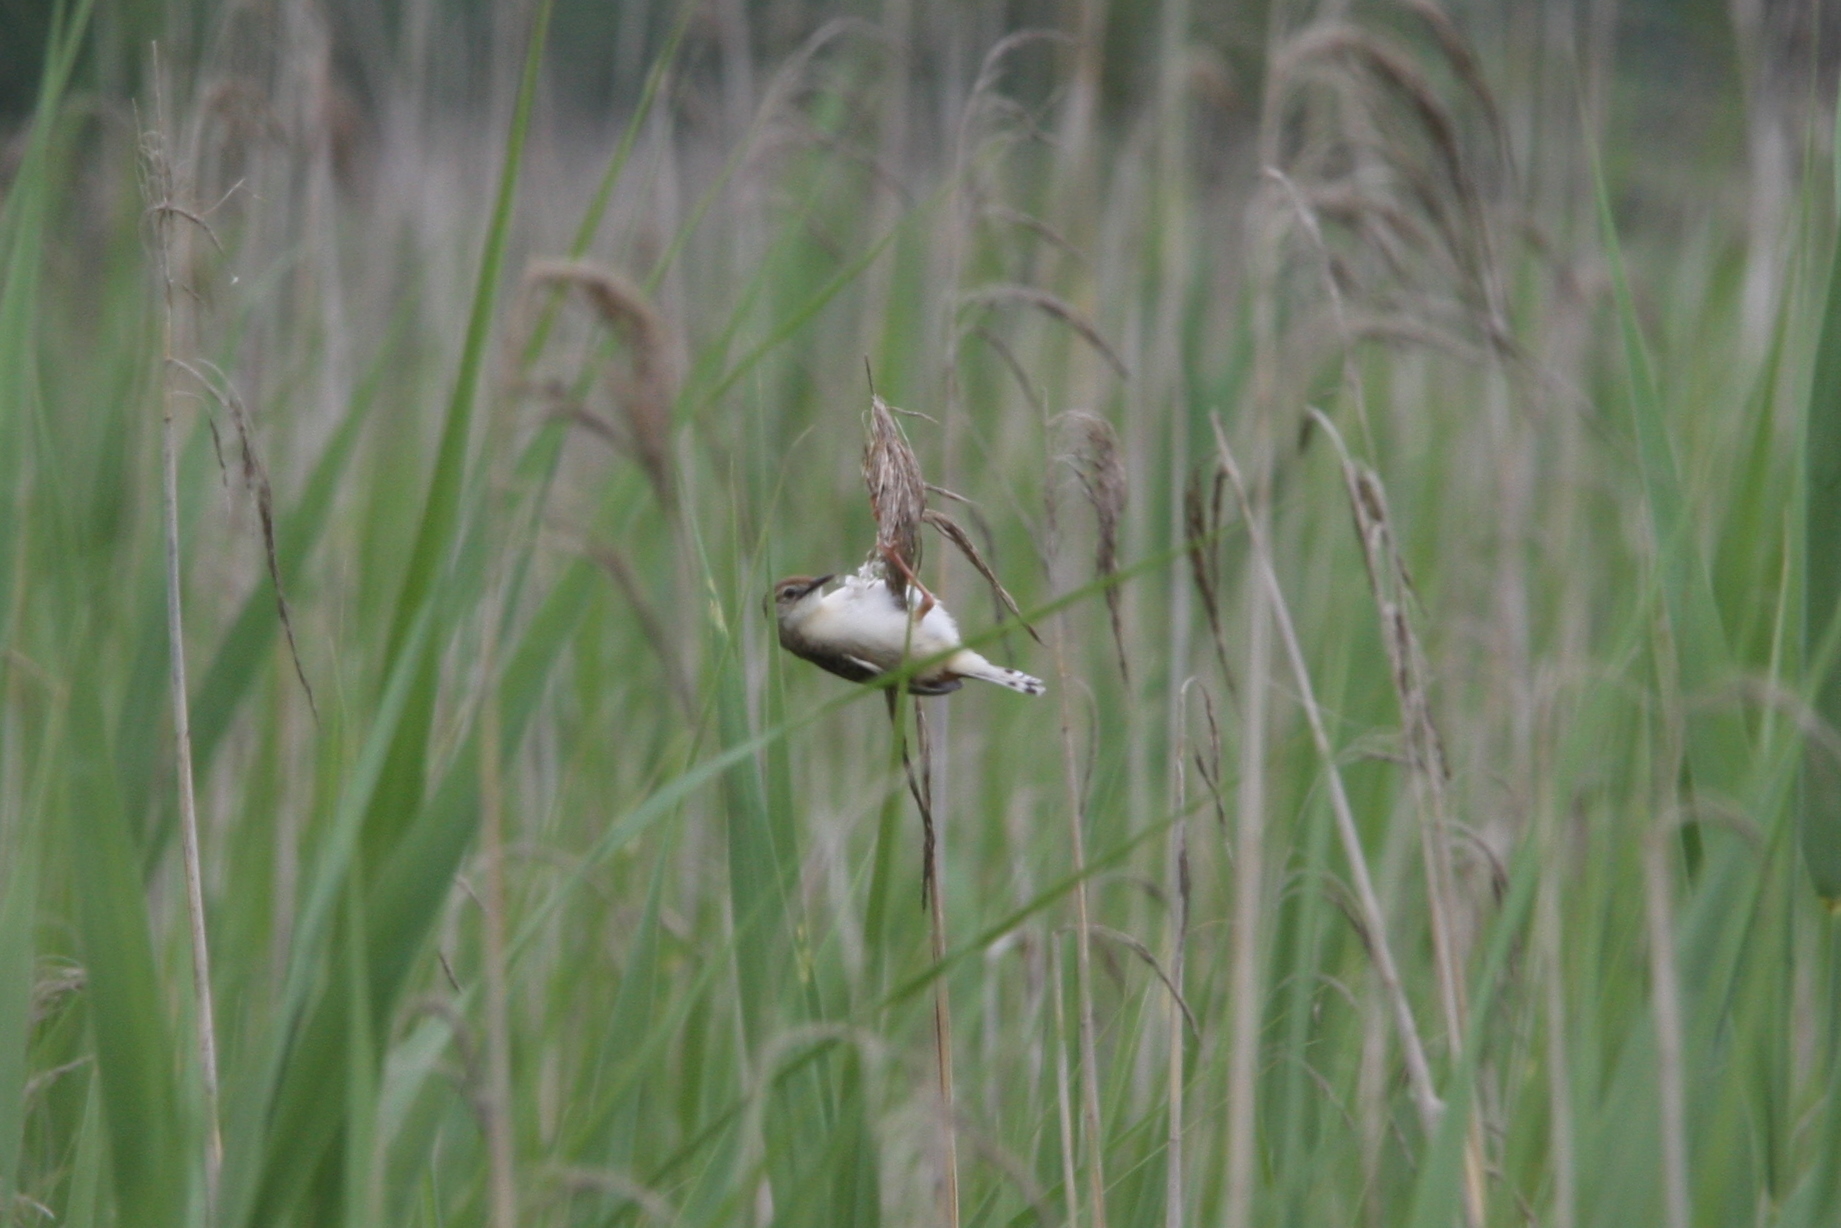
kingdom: Animalia
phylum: Chordata
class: Aves
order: Passeriformes
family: Cisticolidae
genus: Cisticola
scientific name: Cisticola juncidis
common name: Zitting cisticola
